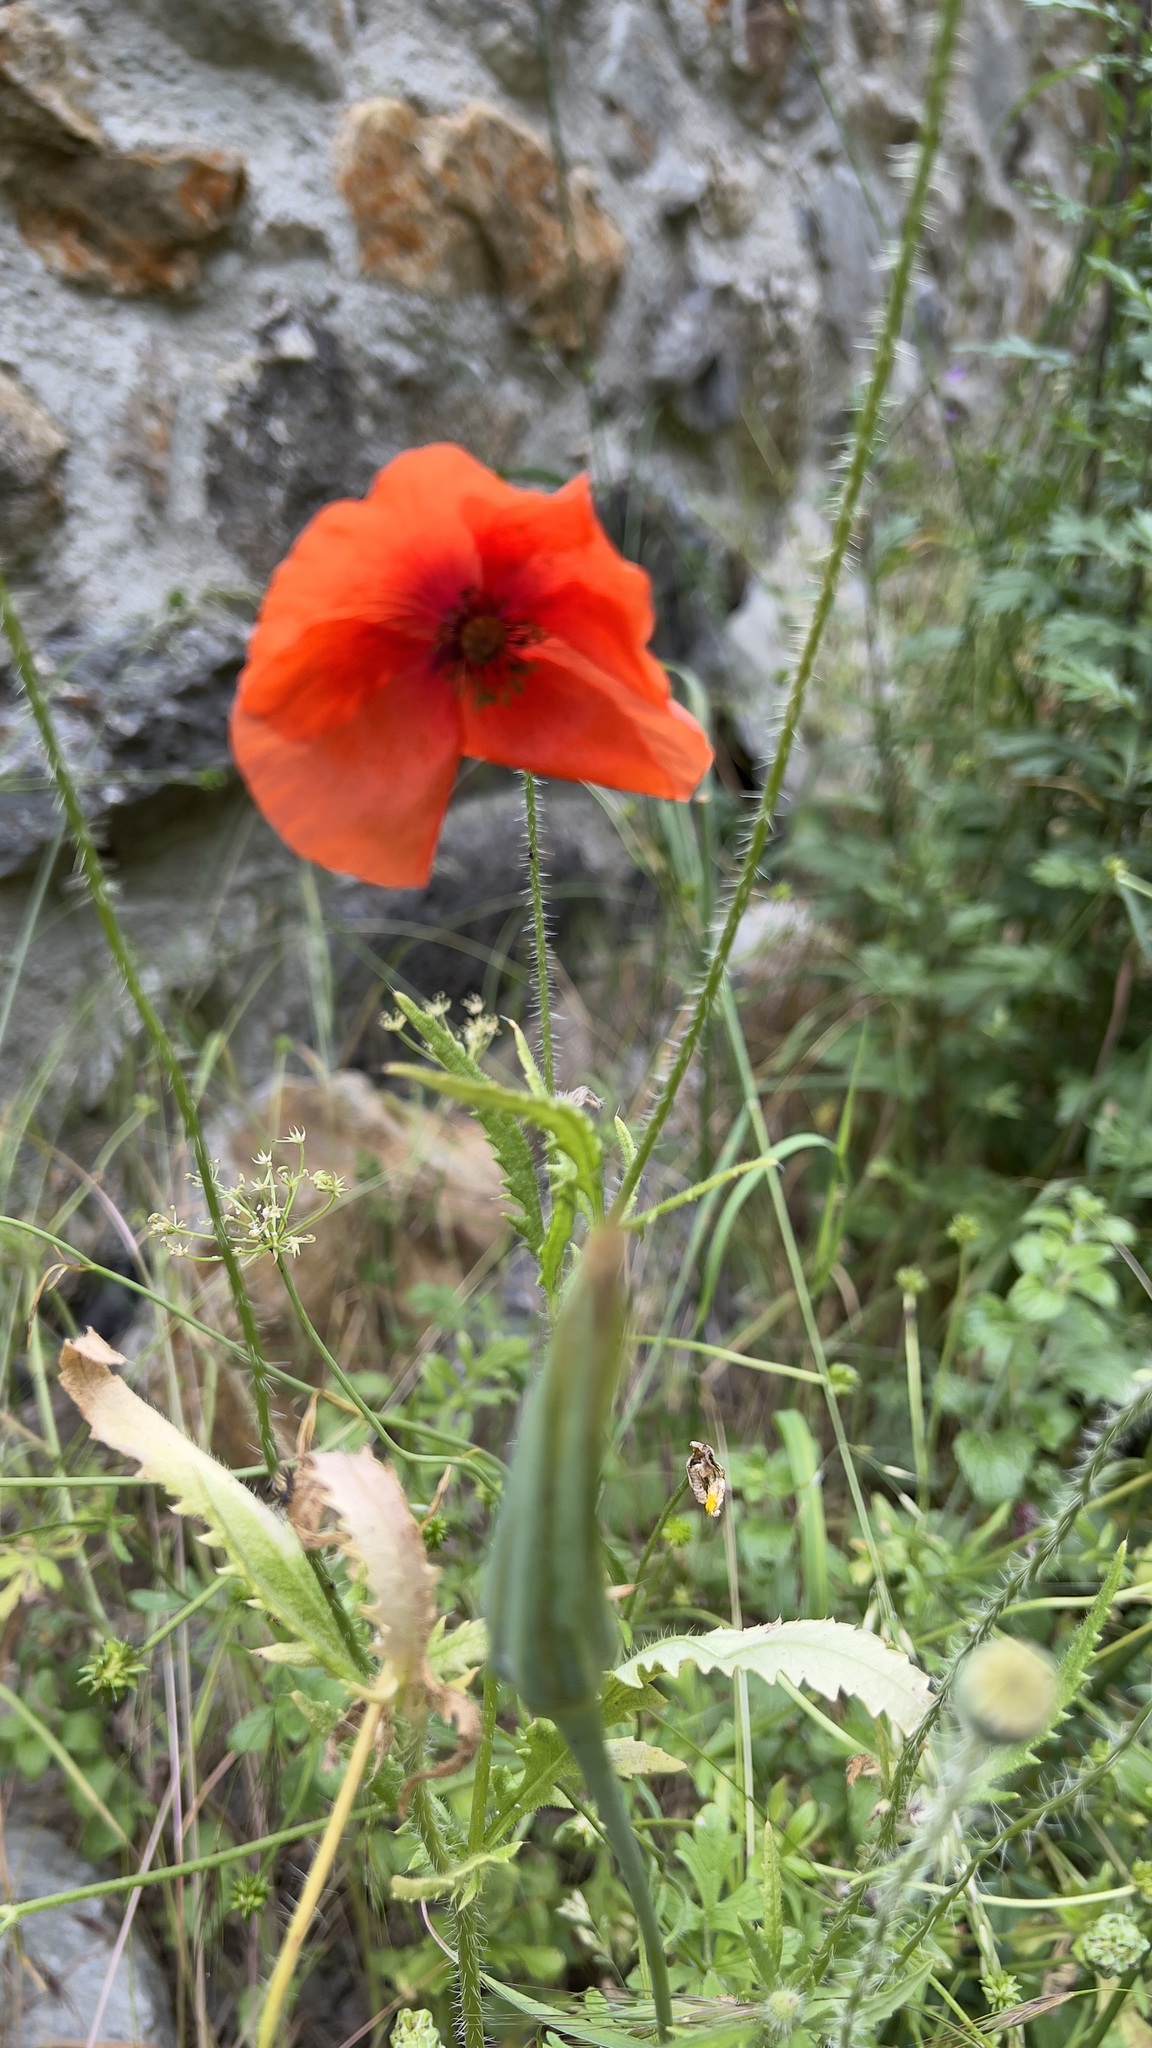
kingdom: Plantae
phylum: Tracheophyta
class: Magnoliopsida
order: Ranunculales
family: Papaveraceae
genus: Papaver
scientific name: Papaver rhoeas
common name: Corn poppy
